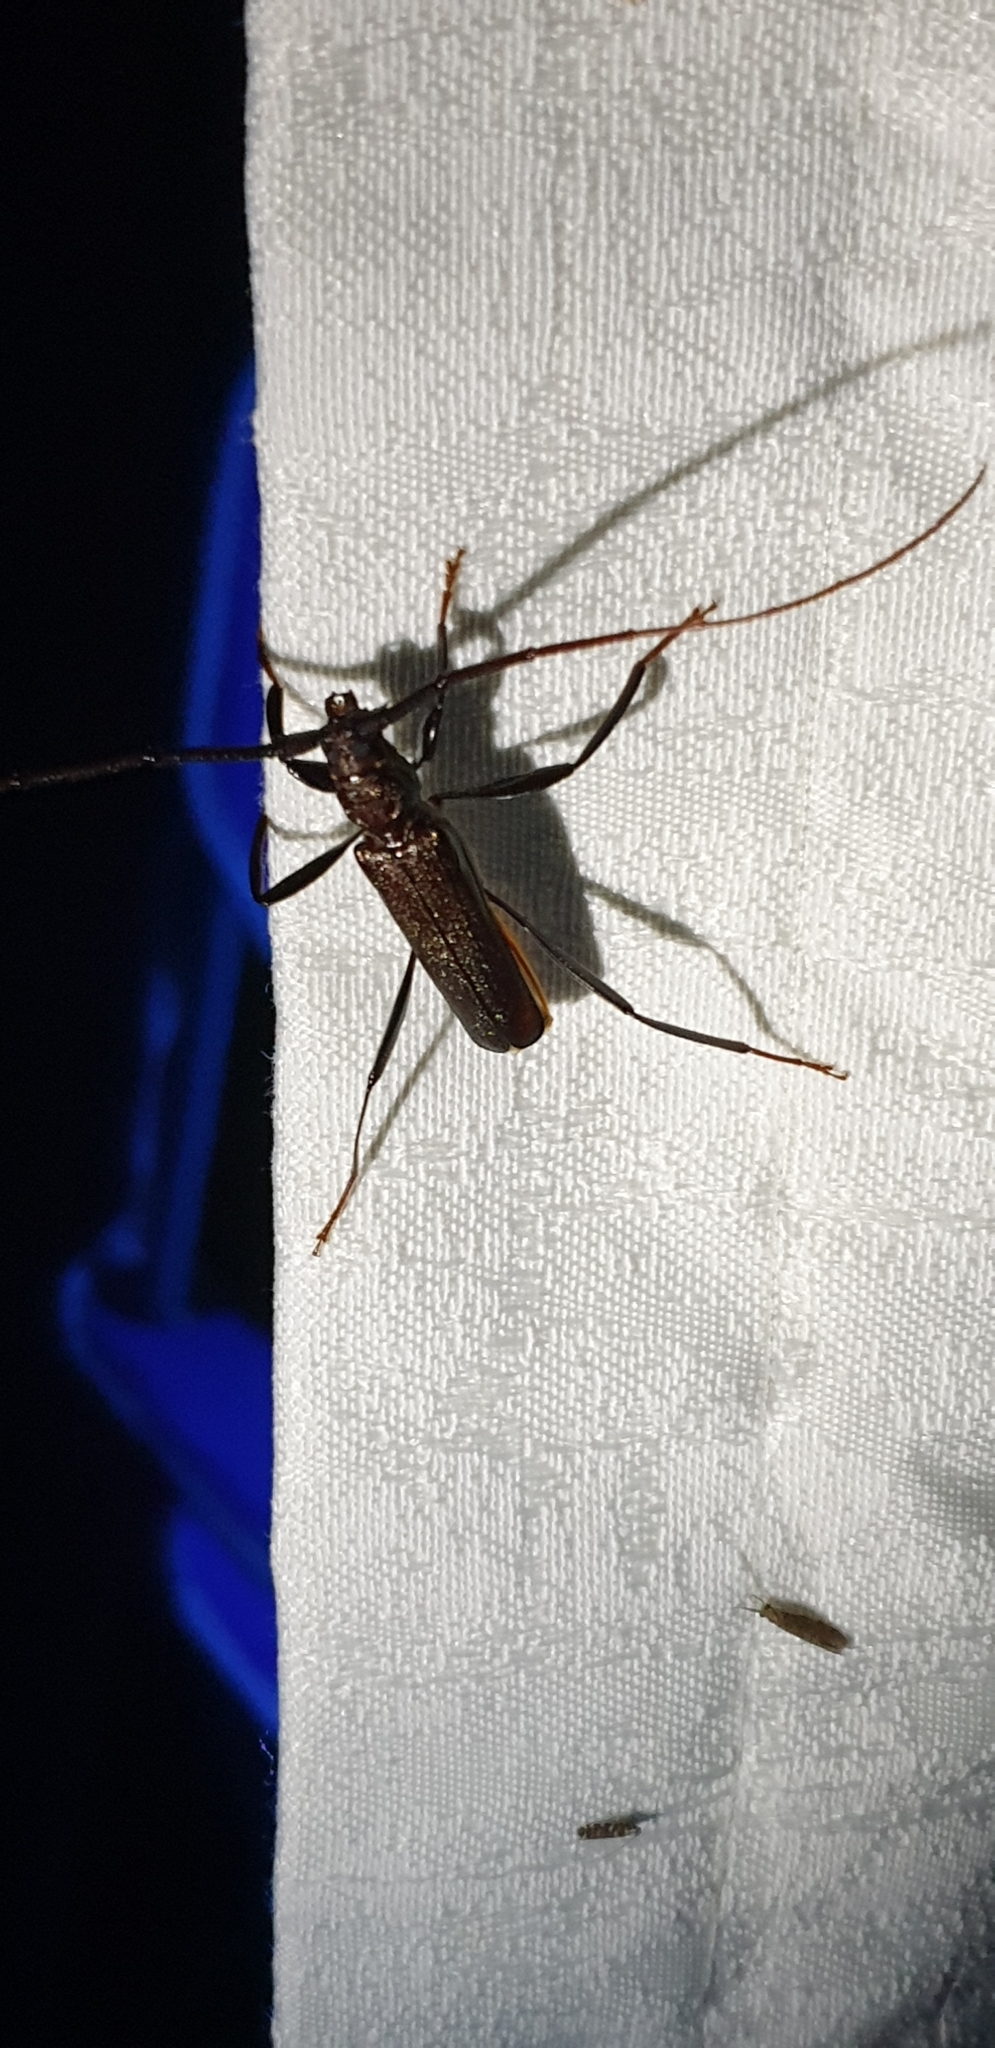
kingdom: Animalia
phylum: Arthropoda
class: Insecta
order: Coleoptera
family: Cerambycidae
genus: Xystrocera
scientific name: Xystrocera virescens
